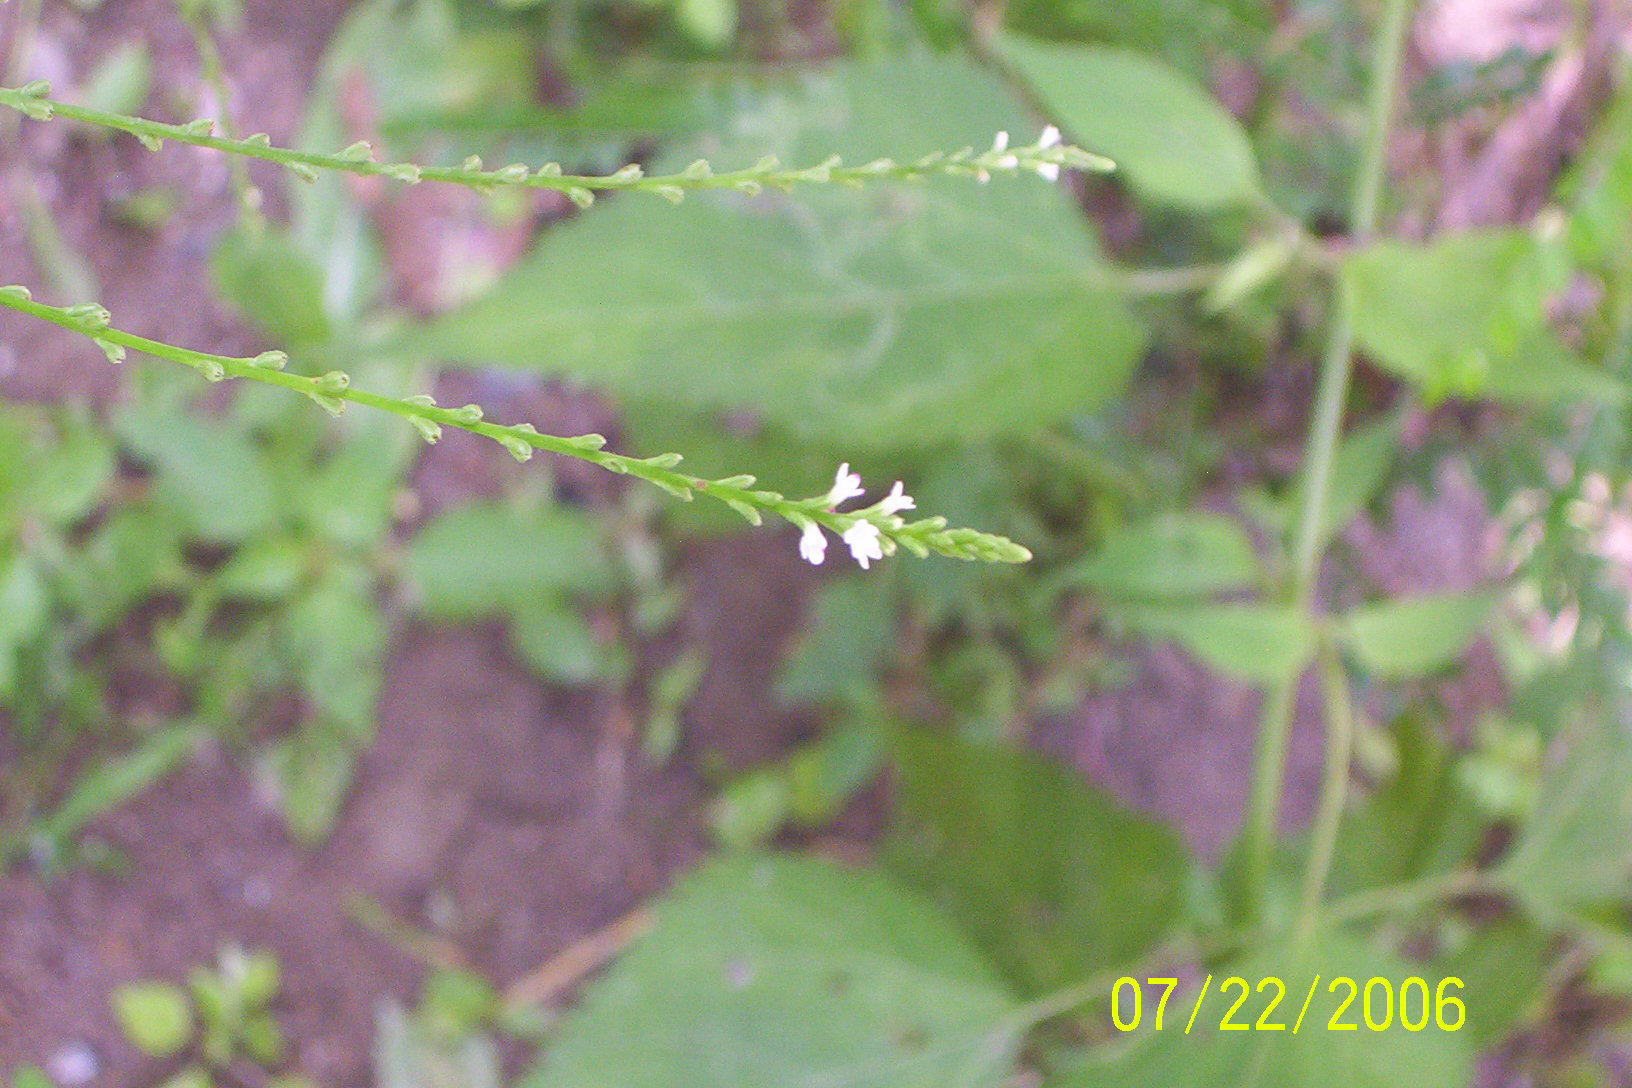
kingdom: Plantae
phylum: Tracheophyta
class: Magnoliopsida
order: Lamiales
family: Verbenaceae
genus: Verbena
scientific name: Verbena urticifolia
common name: Nettle-leaved vervain
